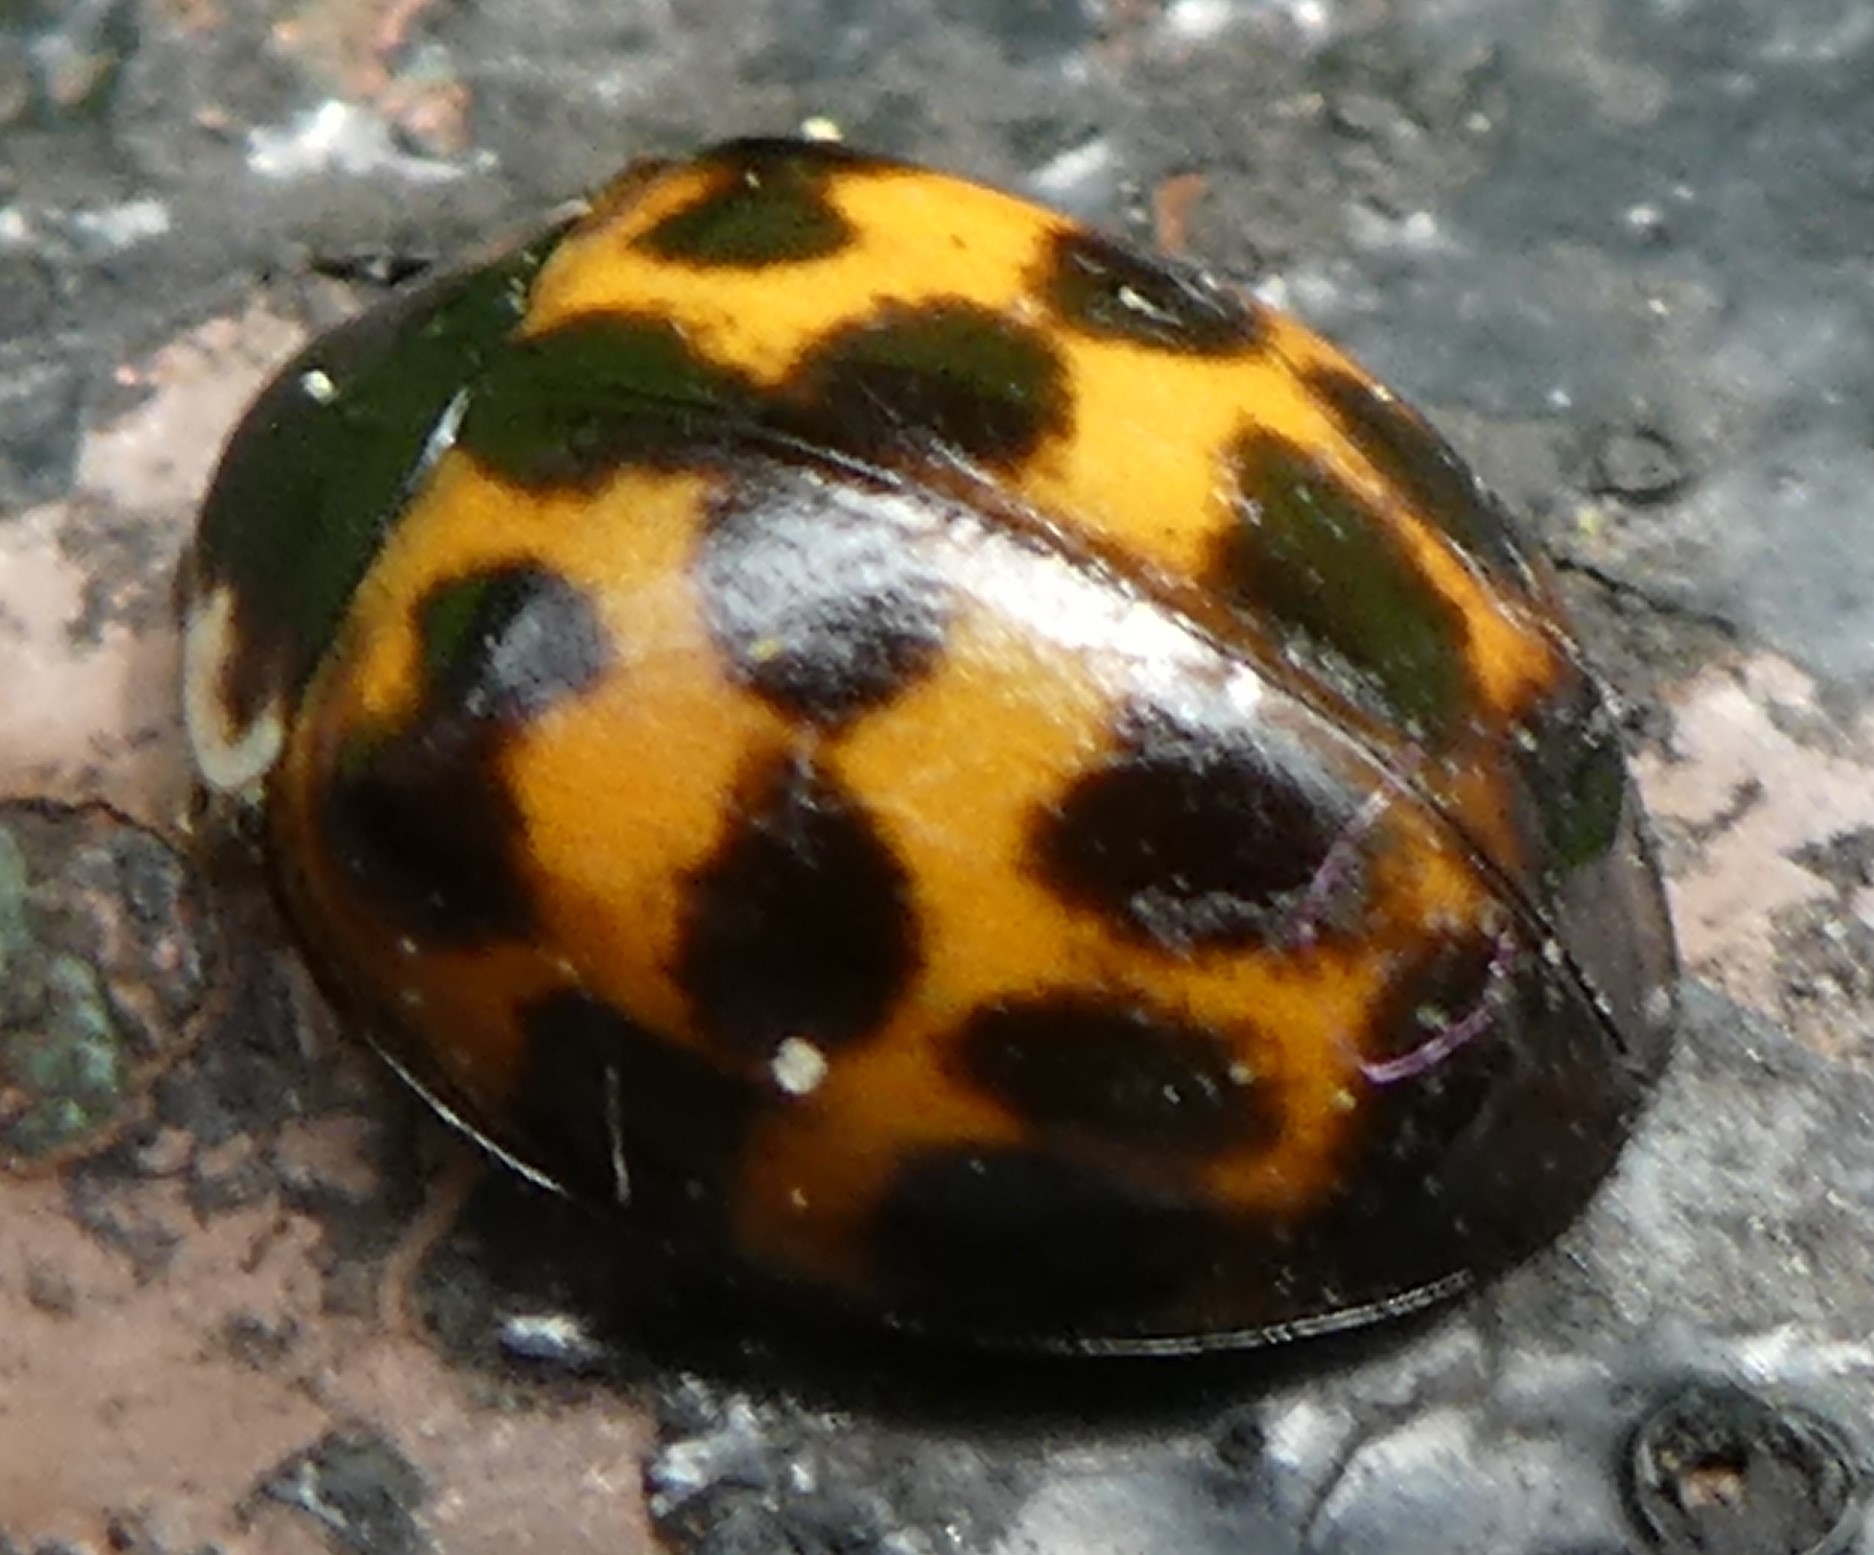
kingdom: Animalia
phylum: Arthropoda
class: Insecta
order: Coleoptera
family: Coccinellidae
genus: Harmonia
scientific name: Harmonia axyridis
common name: Harlequin ladybird
